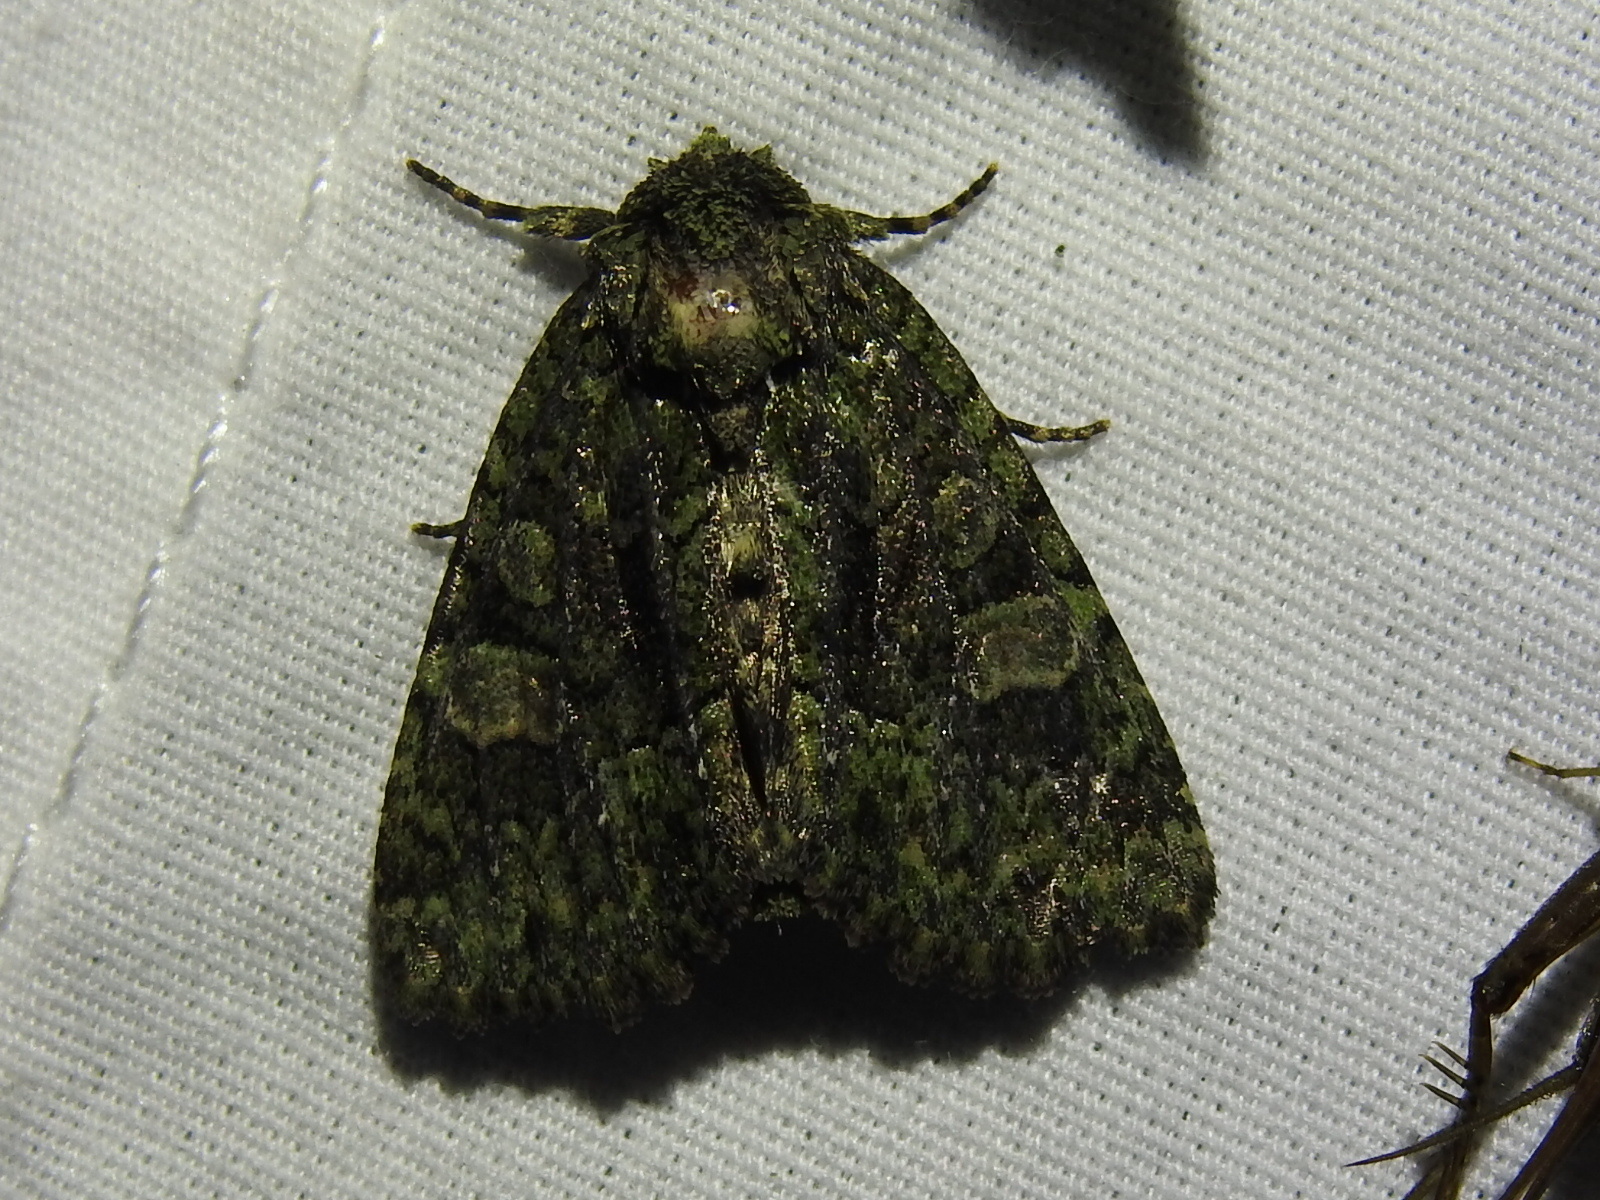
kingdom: Animalia
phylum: Arthropoda
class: Insecta
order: Lepidoptera
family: Noctuidae
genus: Phosphila
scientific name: Phosphila miselioides
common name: Spotted phosphila moth
